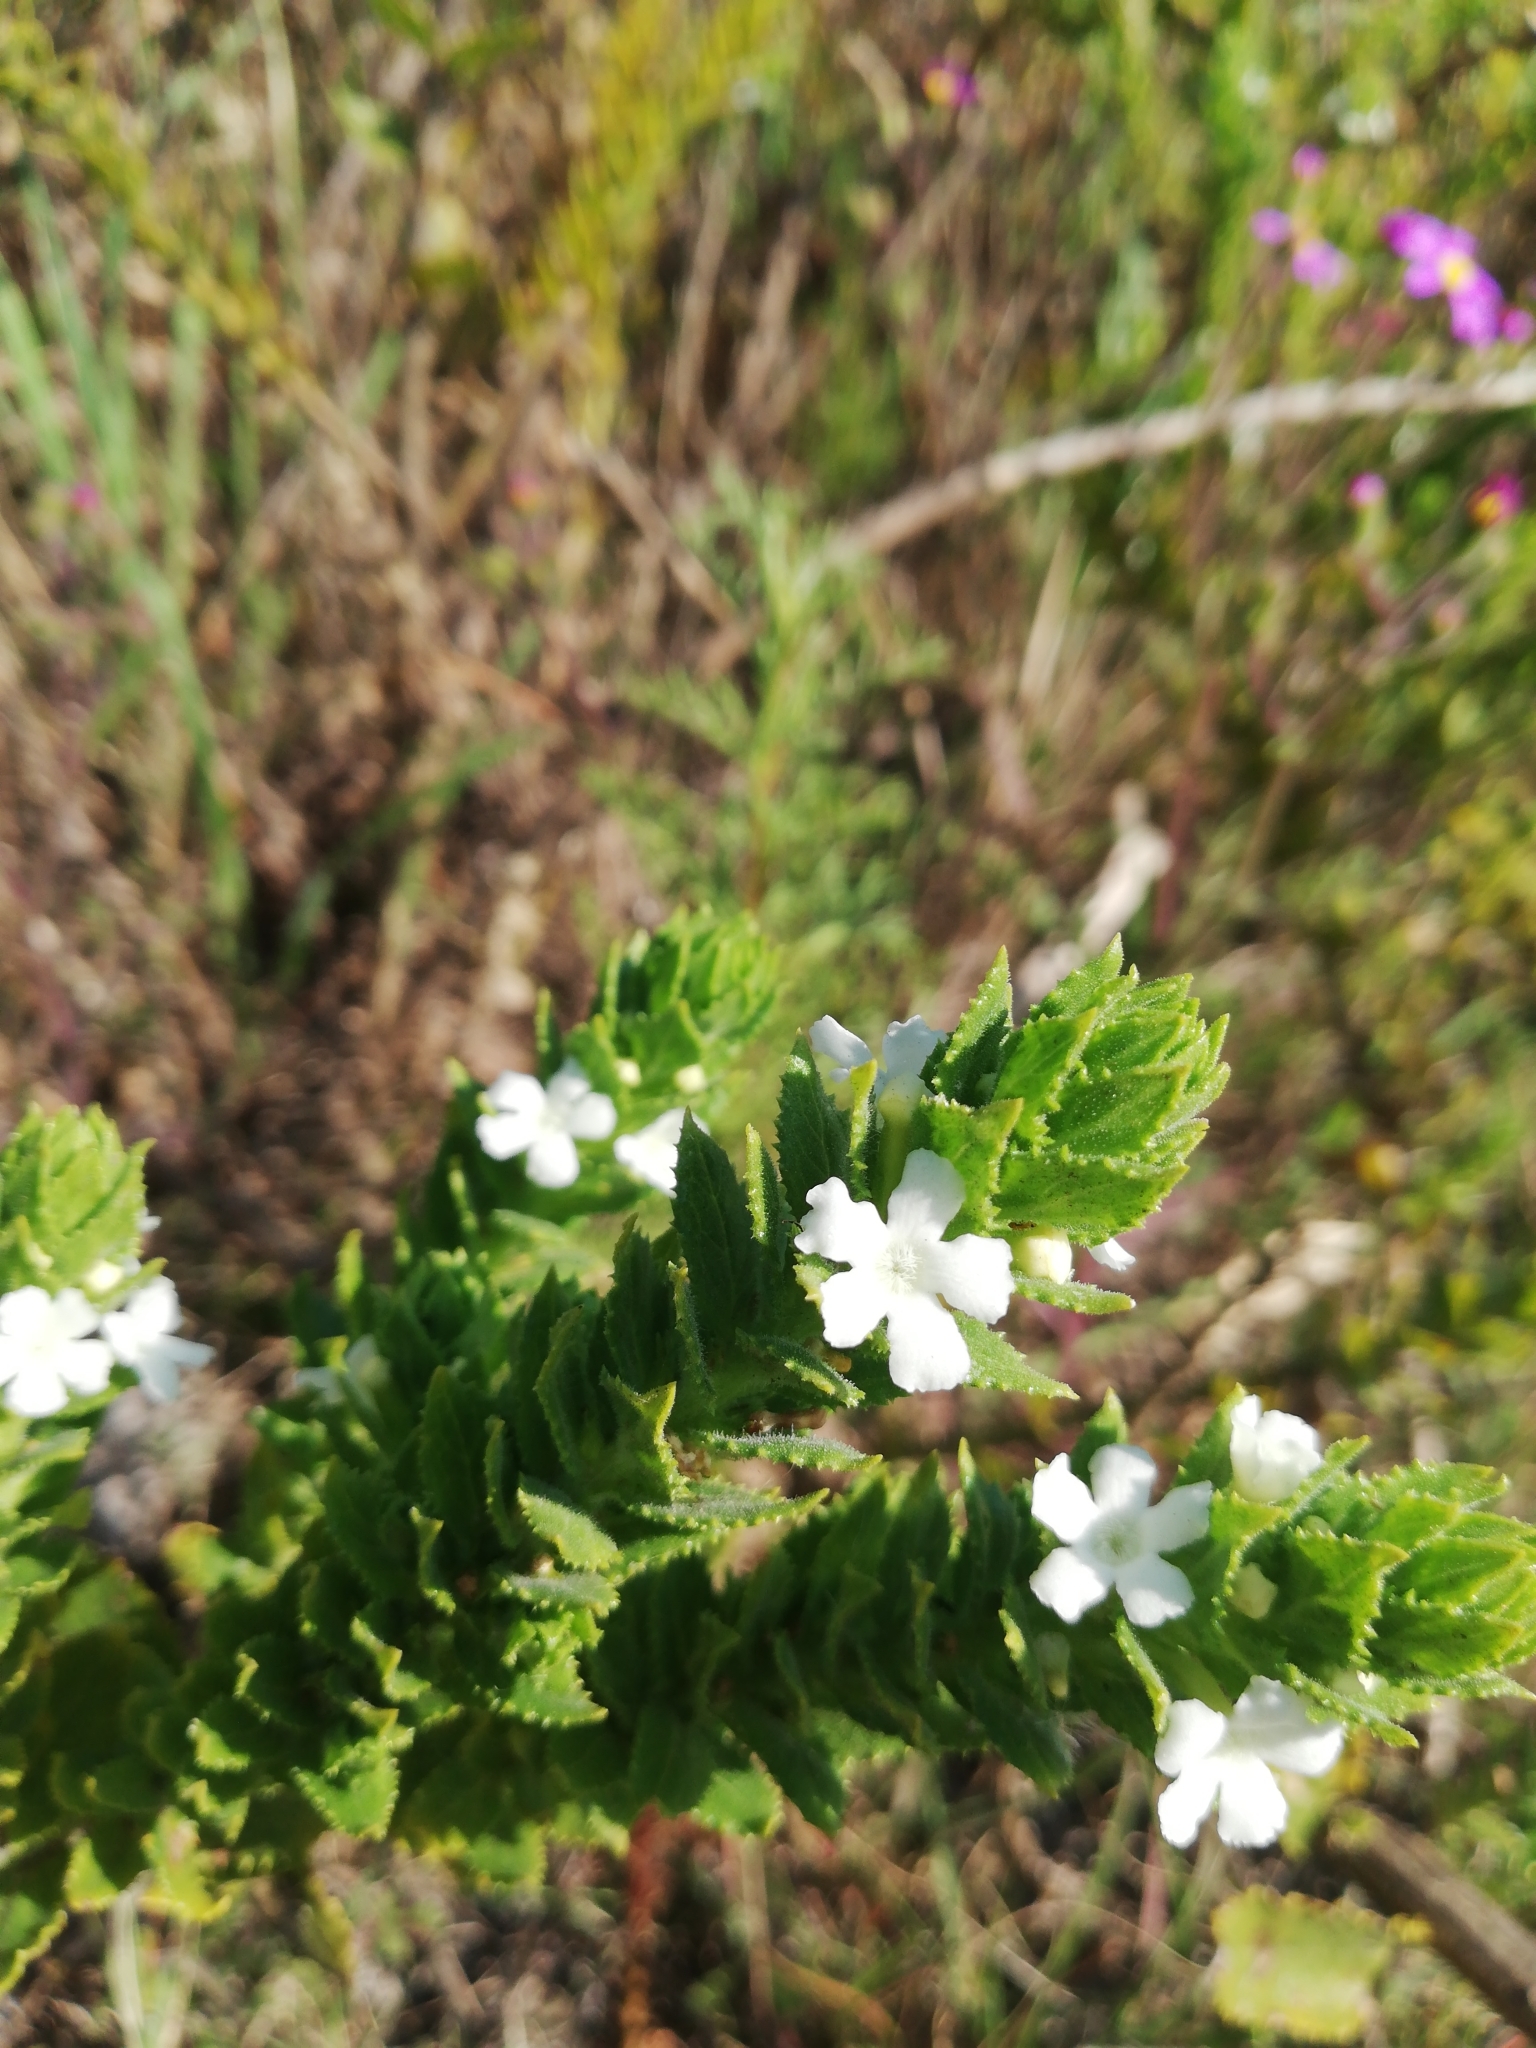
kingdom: Plantae
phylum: Tracheophyta
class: Magnoliopsida
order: Lamiales
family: Scrophulariaceae
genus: Oftia
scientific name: Oftia africana
